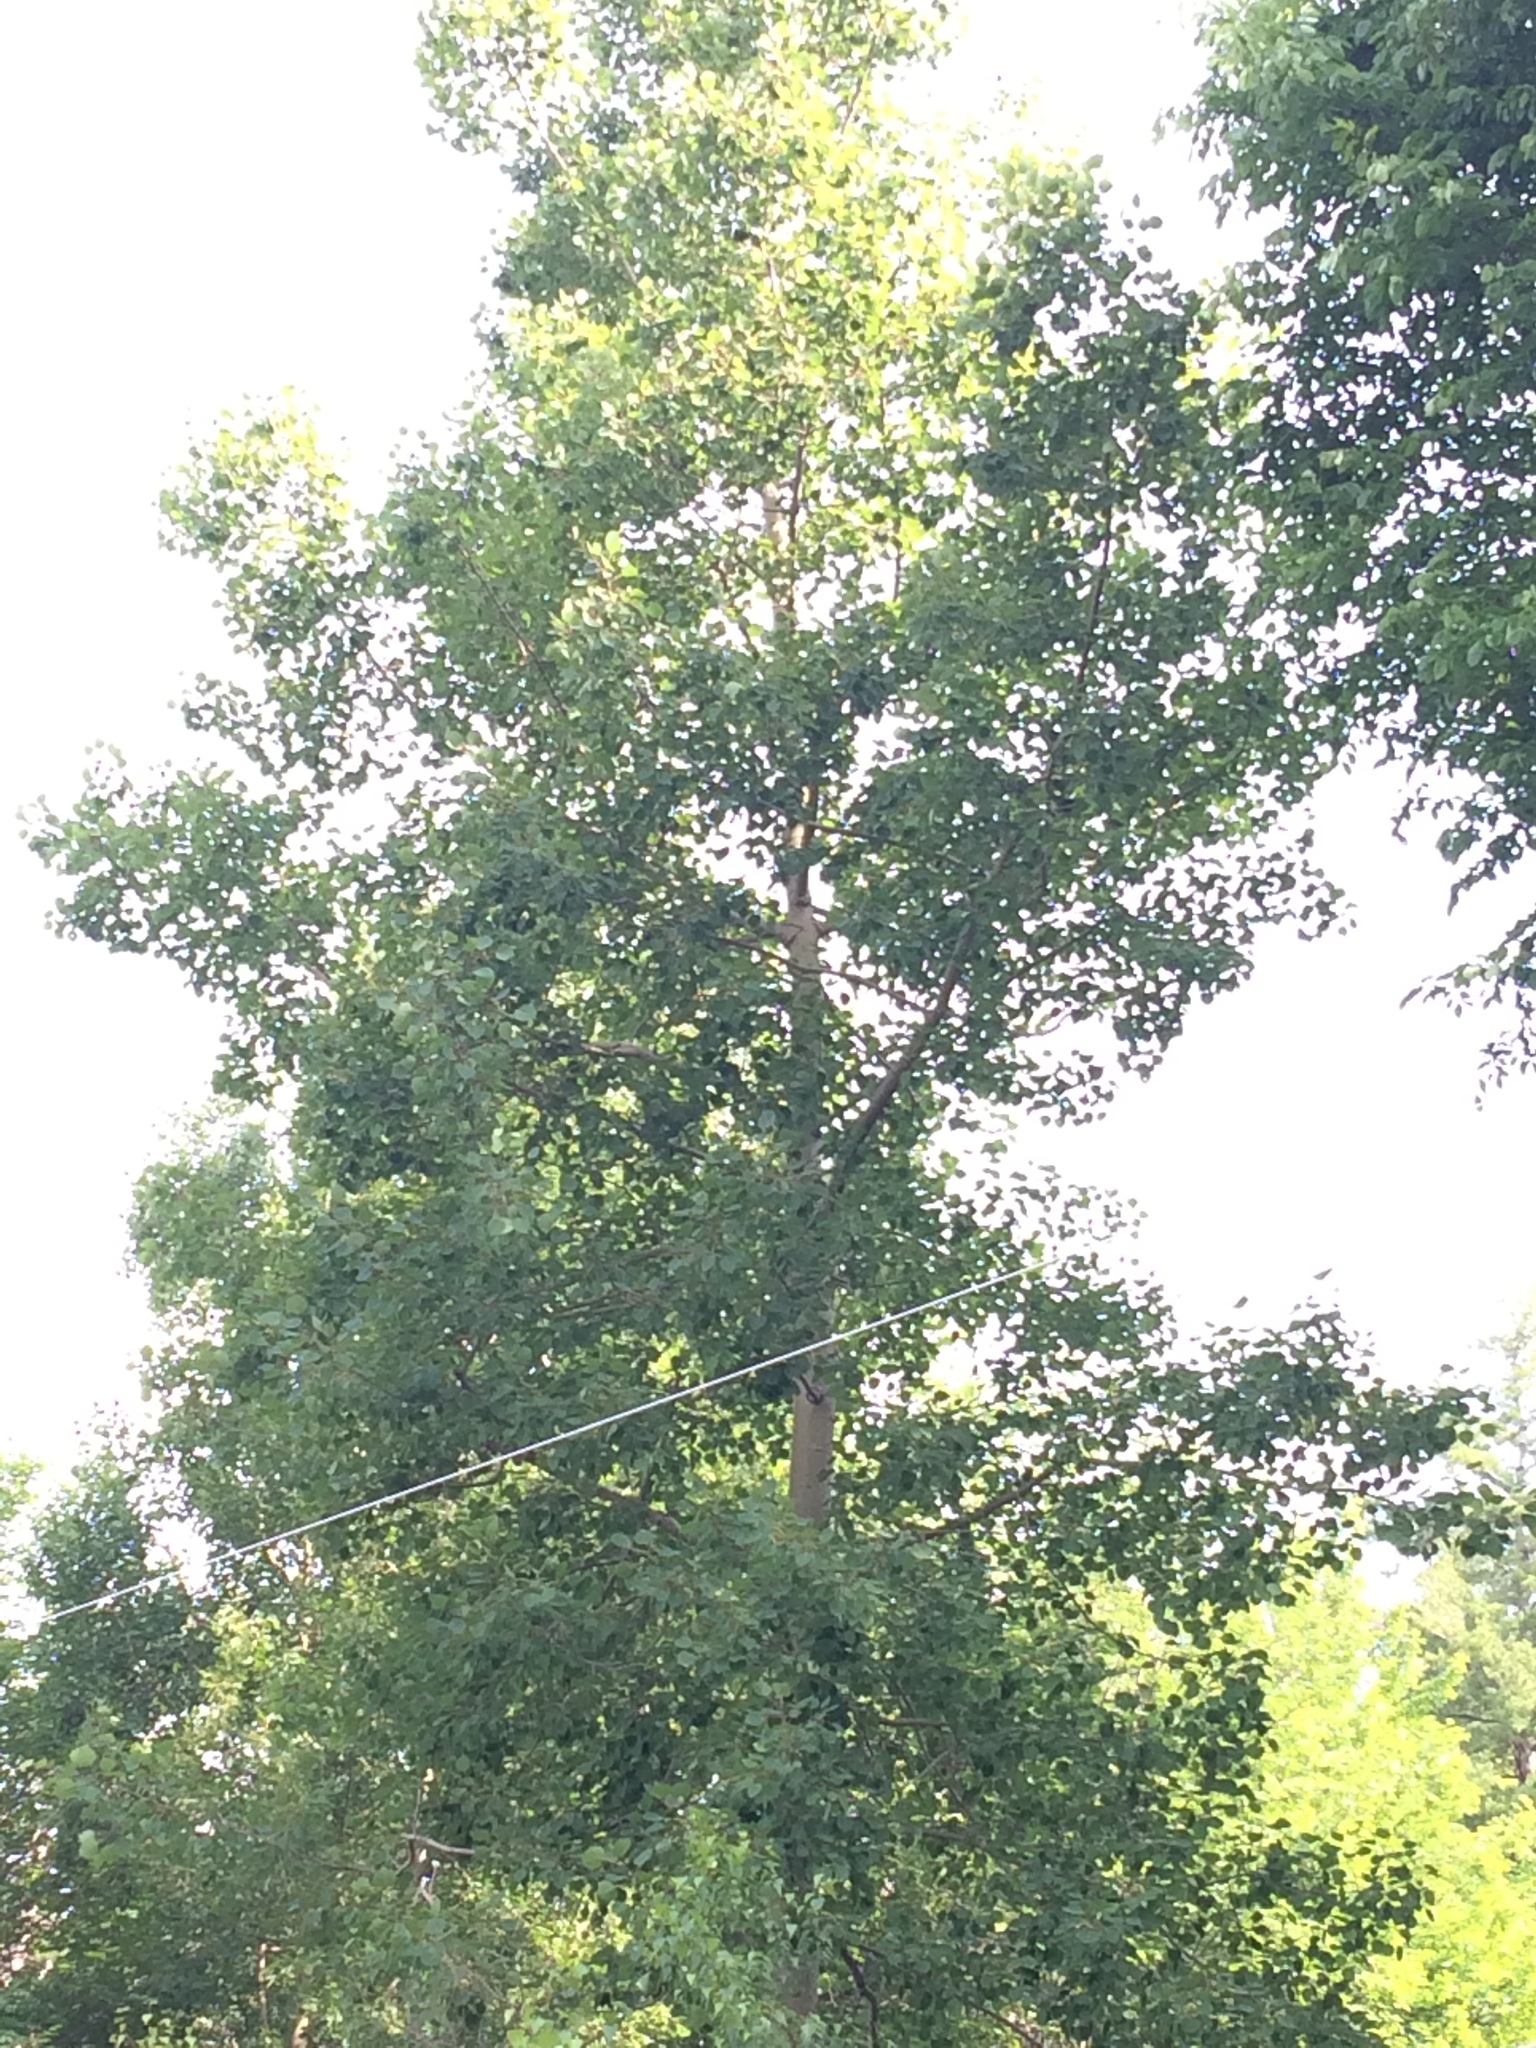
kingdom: Plantae
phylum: Tracheophyta
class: Magnoliopsida
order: Malpighiales
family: Salicaceae
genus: Populus
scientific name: Populus tremuloides
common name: Quaking aspen
